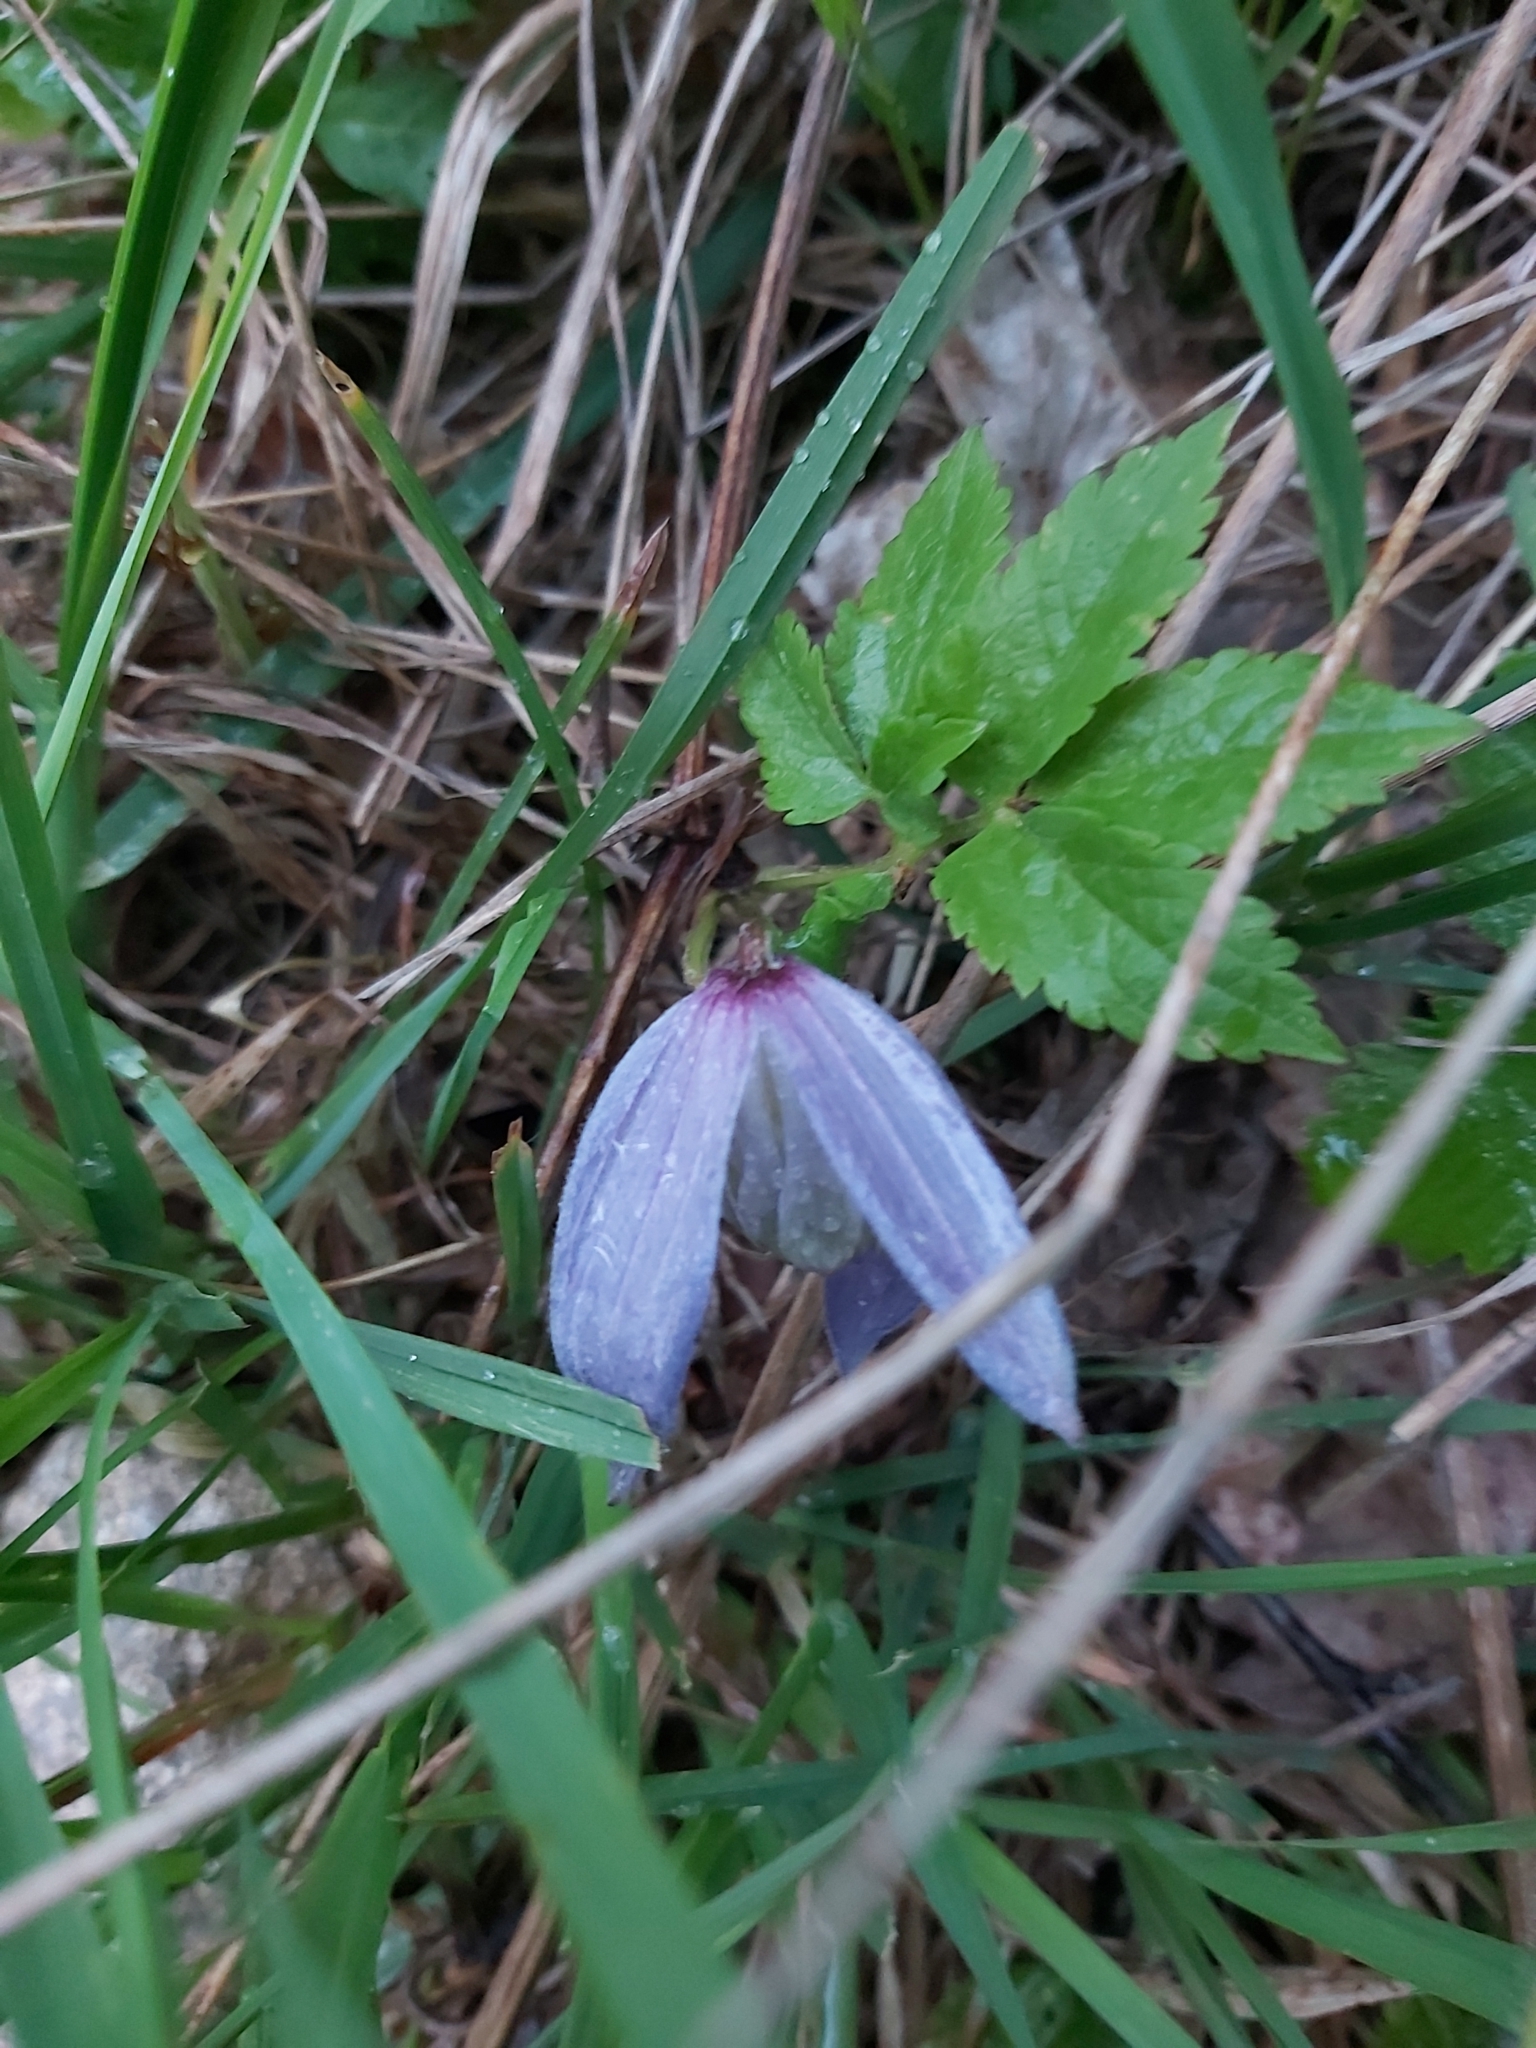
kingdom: Plantae
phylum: Tracheophyta
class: Magnoliopsida
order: Ranunculales
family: Ranunculaceae
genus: Clematis
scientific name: Clematis alpina
